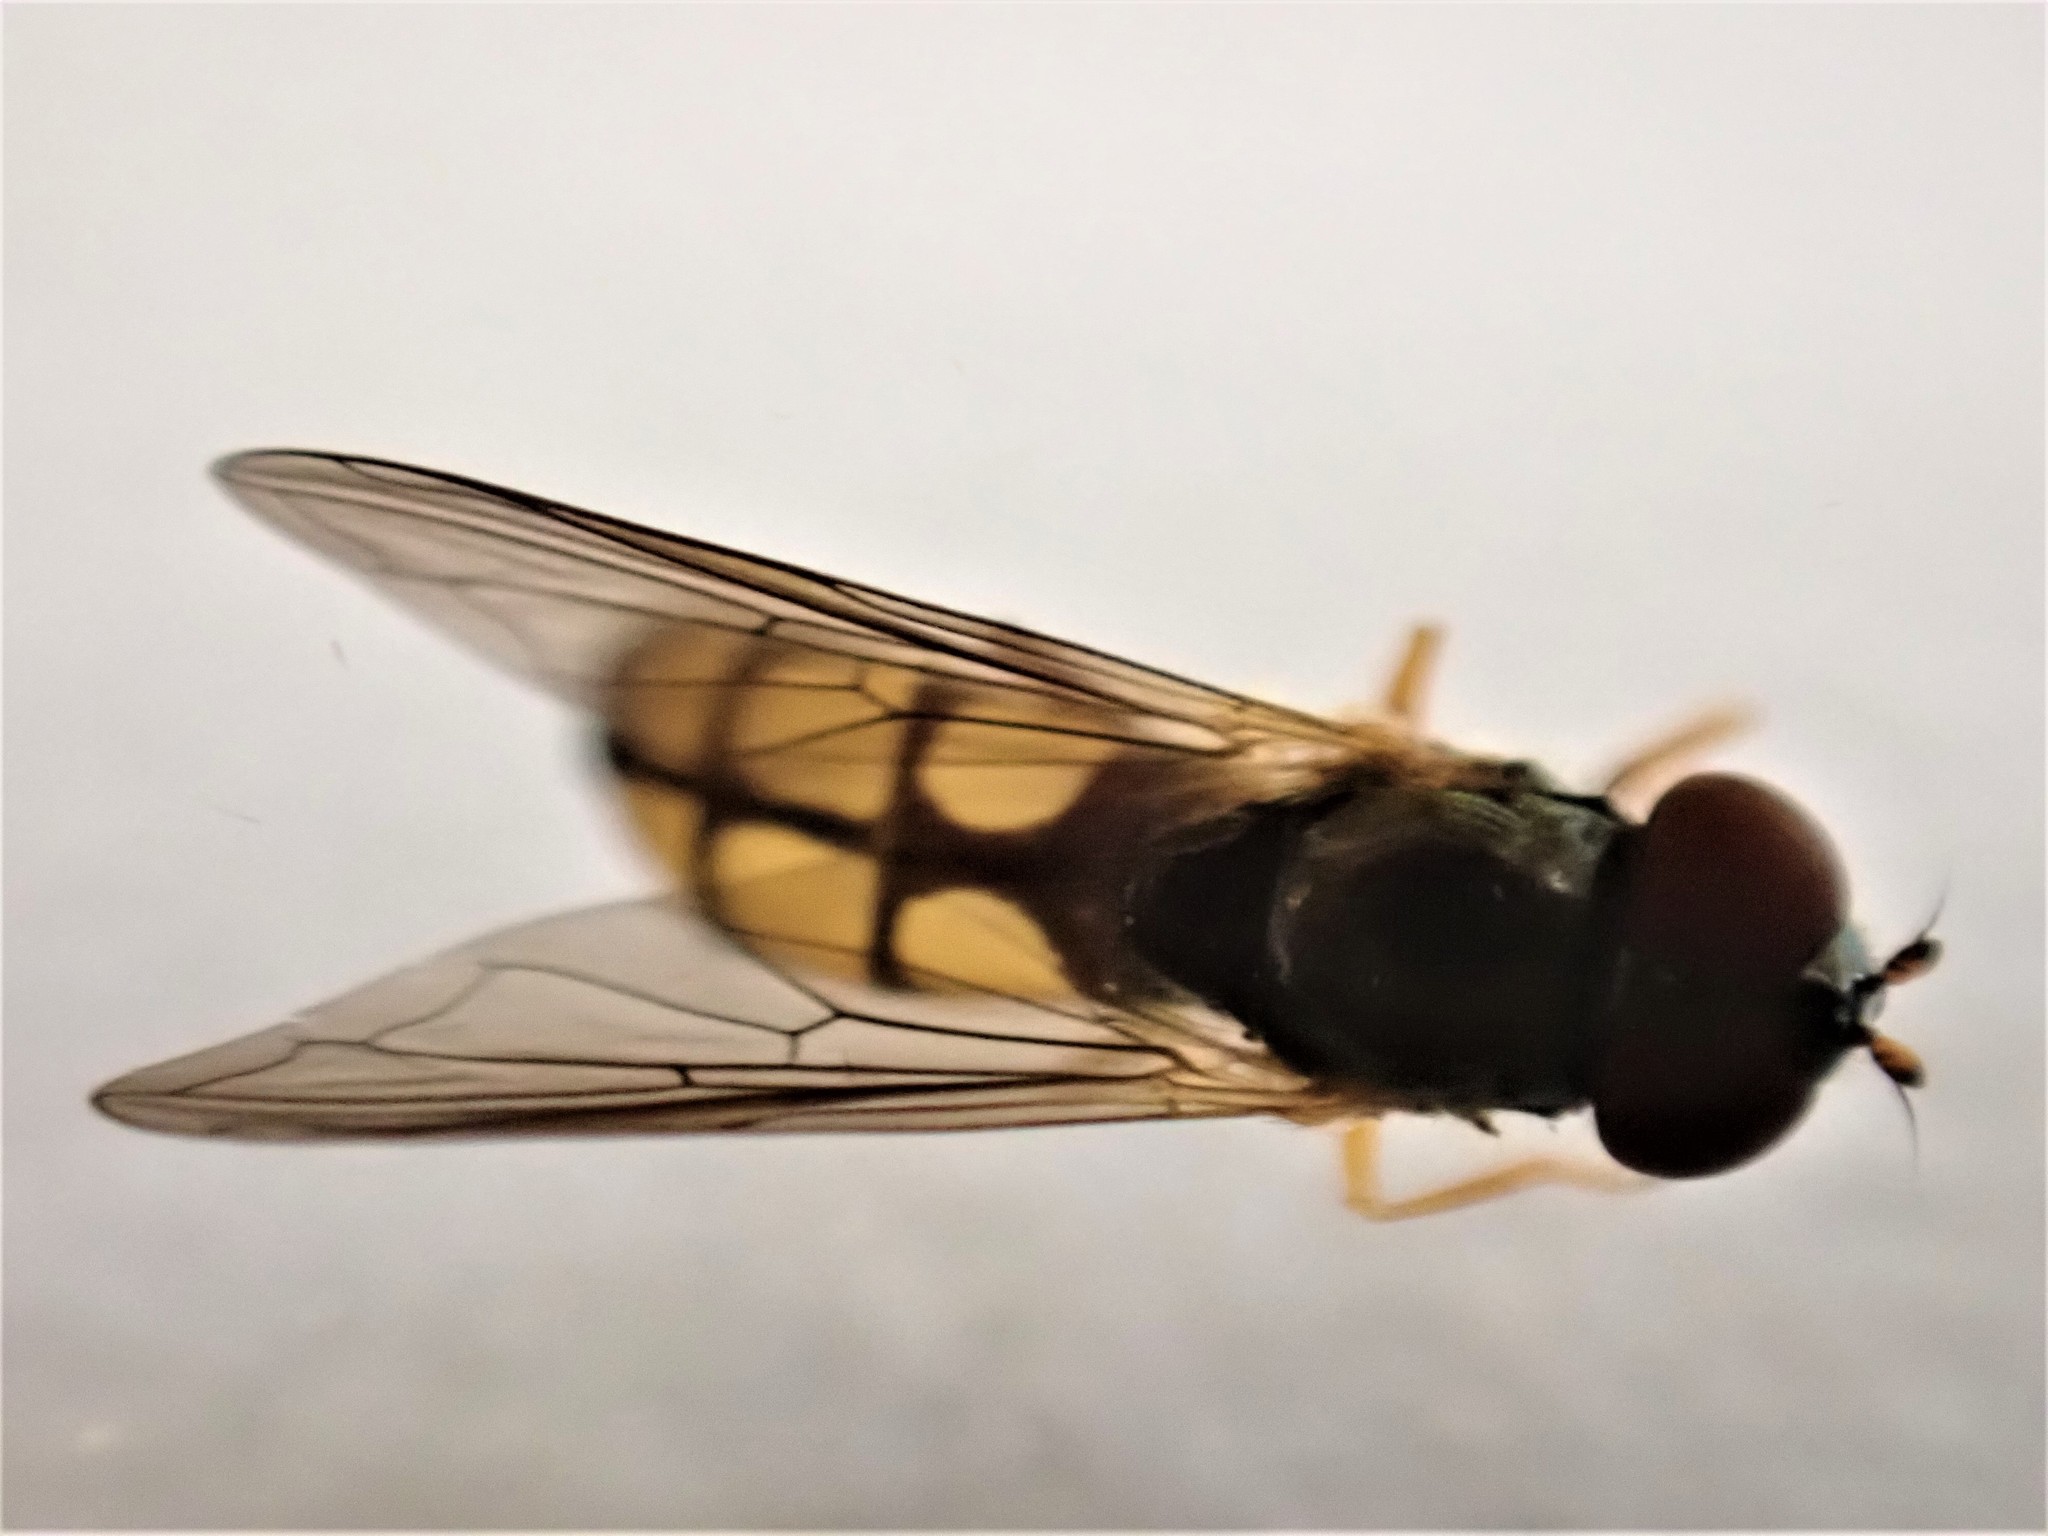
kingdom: Animalia
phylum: Arthropoda
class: Insecta
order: Diptera
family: Syrphidae
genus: Melanostoma
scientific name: Melanostoma fasciatum
